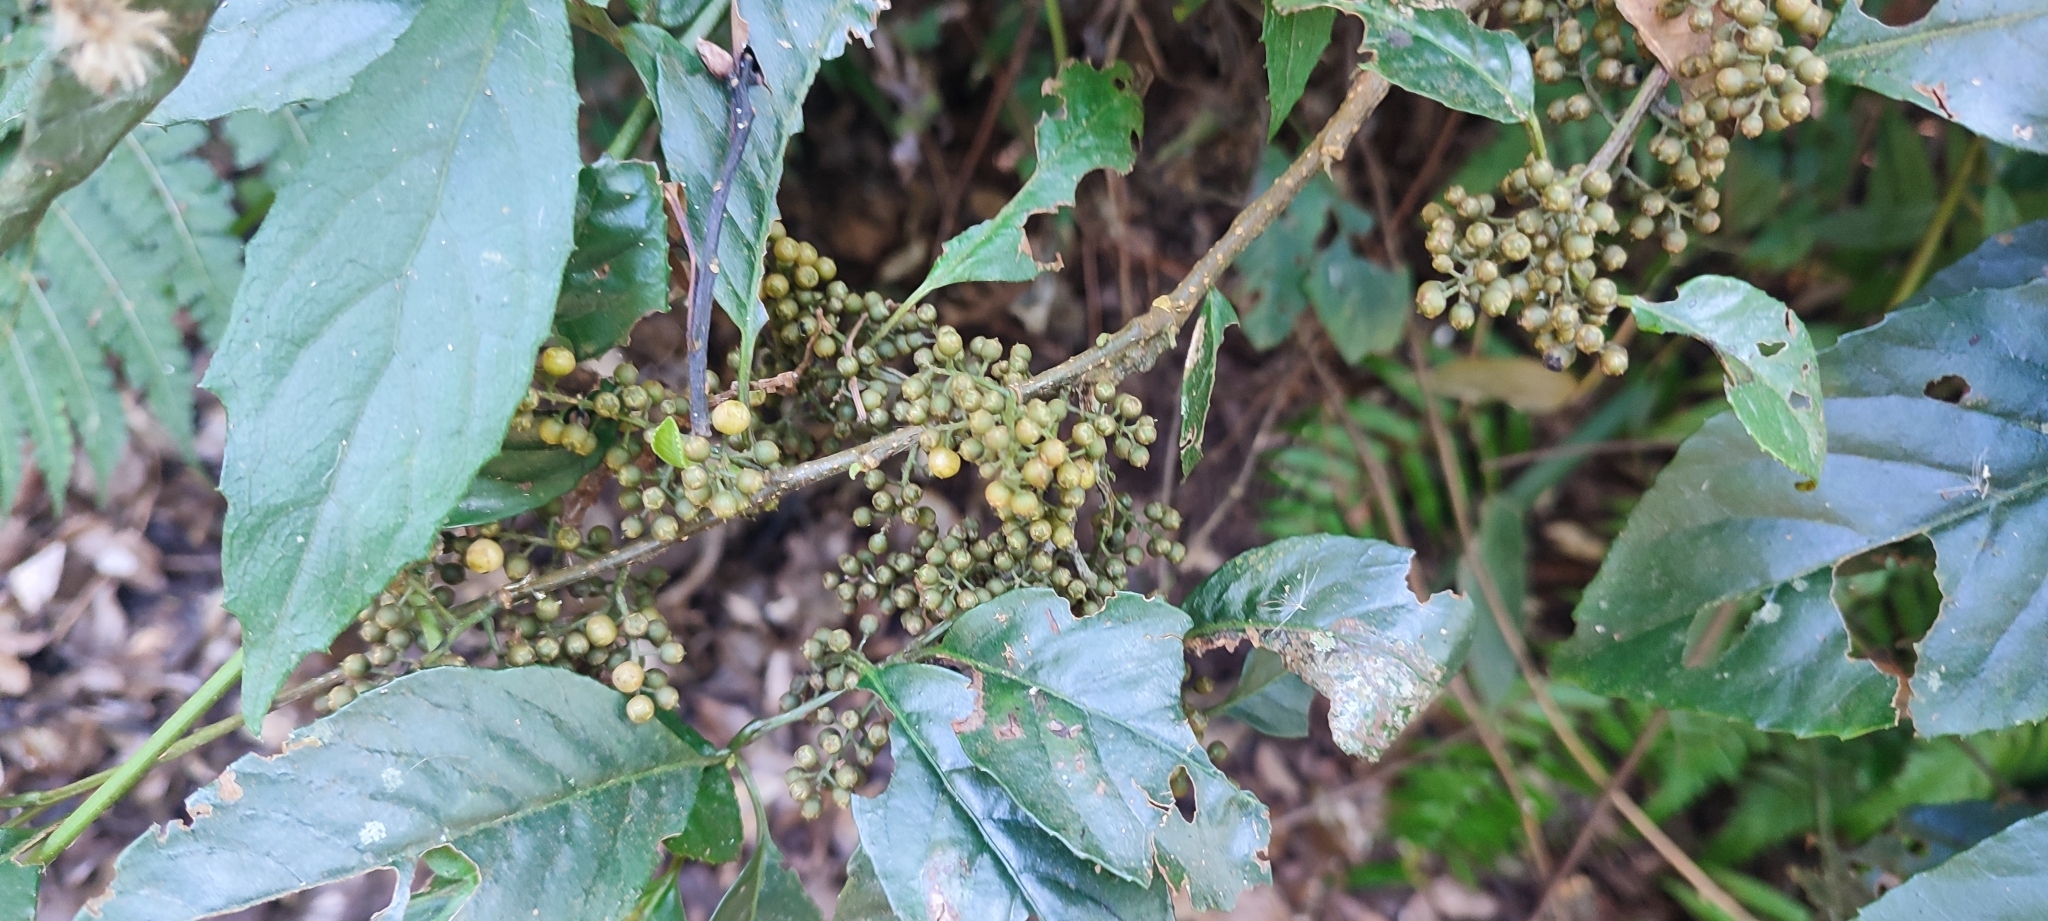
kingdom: Plantae
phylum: Tracheophyta
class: Magnoliopsida
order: Ericales
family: Primulaceae
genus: Maesa
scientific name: Maesa perlaria
